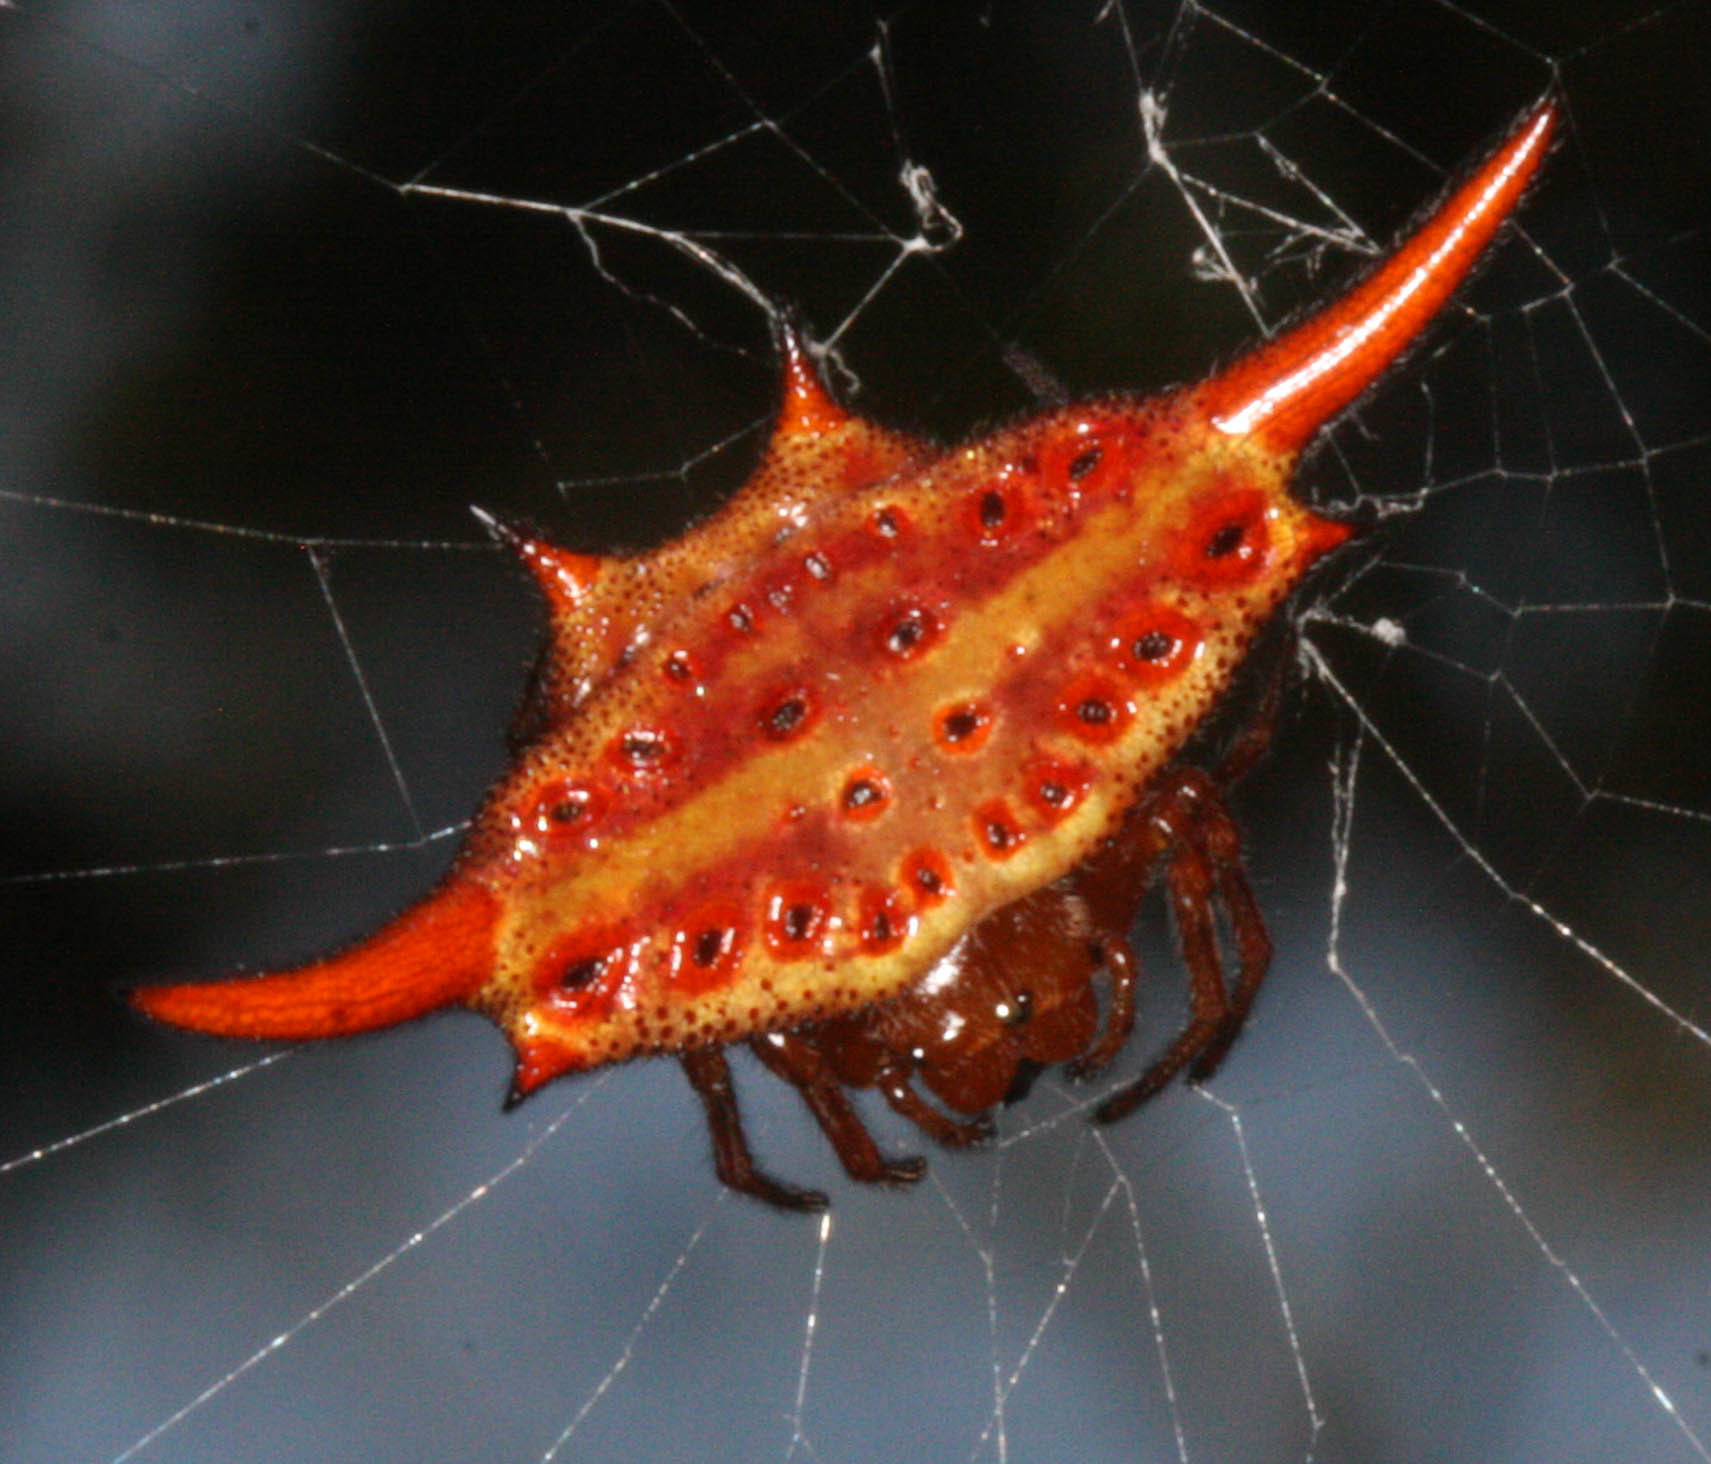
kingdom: Animalia
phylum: Arthropoda
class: Arachnida
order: Araneae
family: Araneidae
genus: Gasteracantha
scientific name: Gasteracantha versicolor
